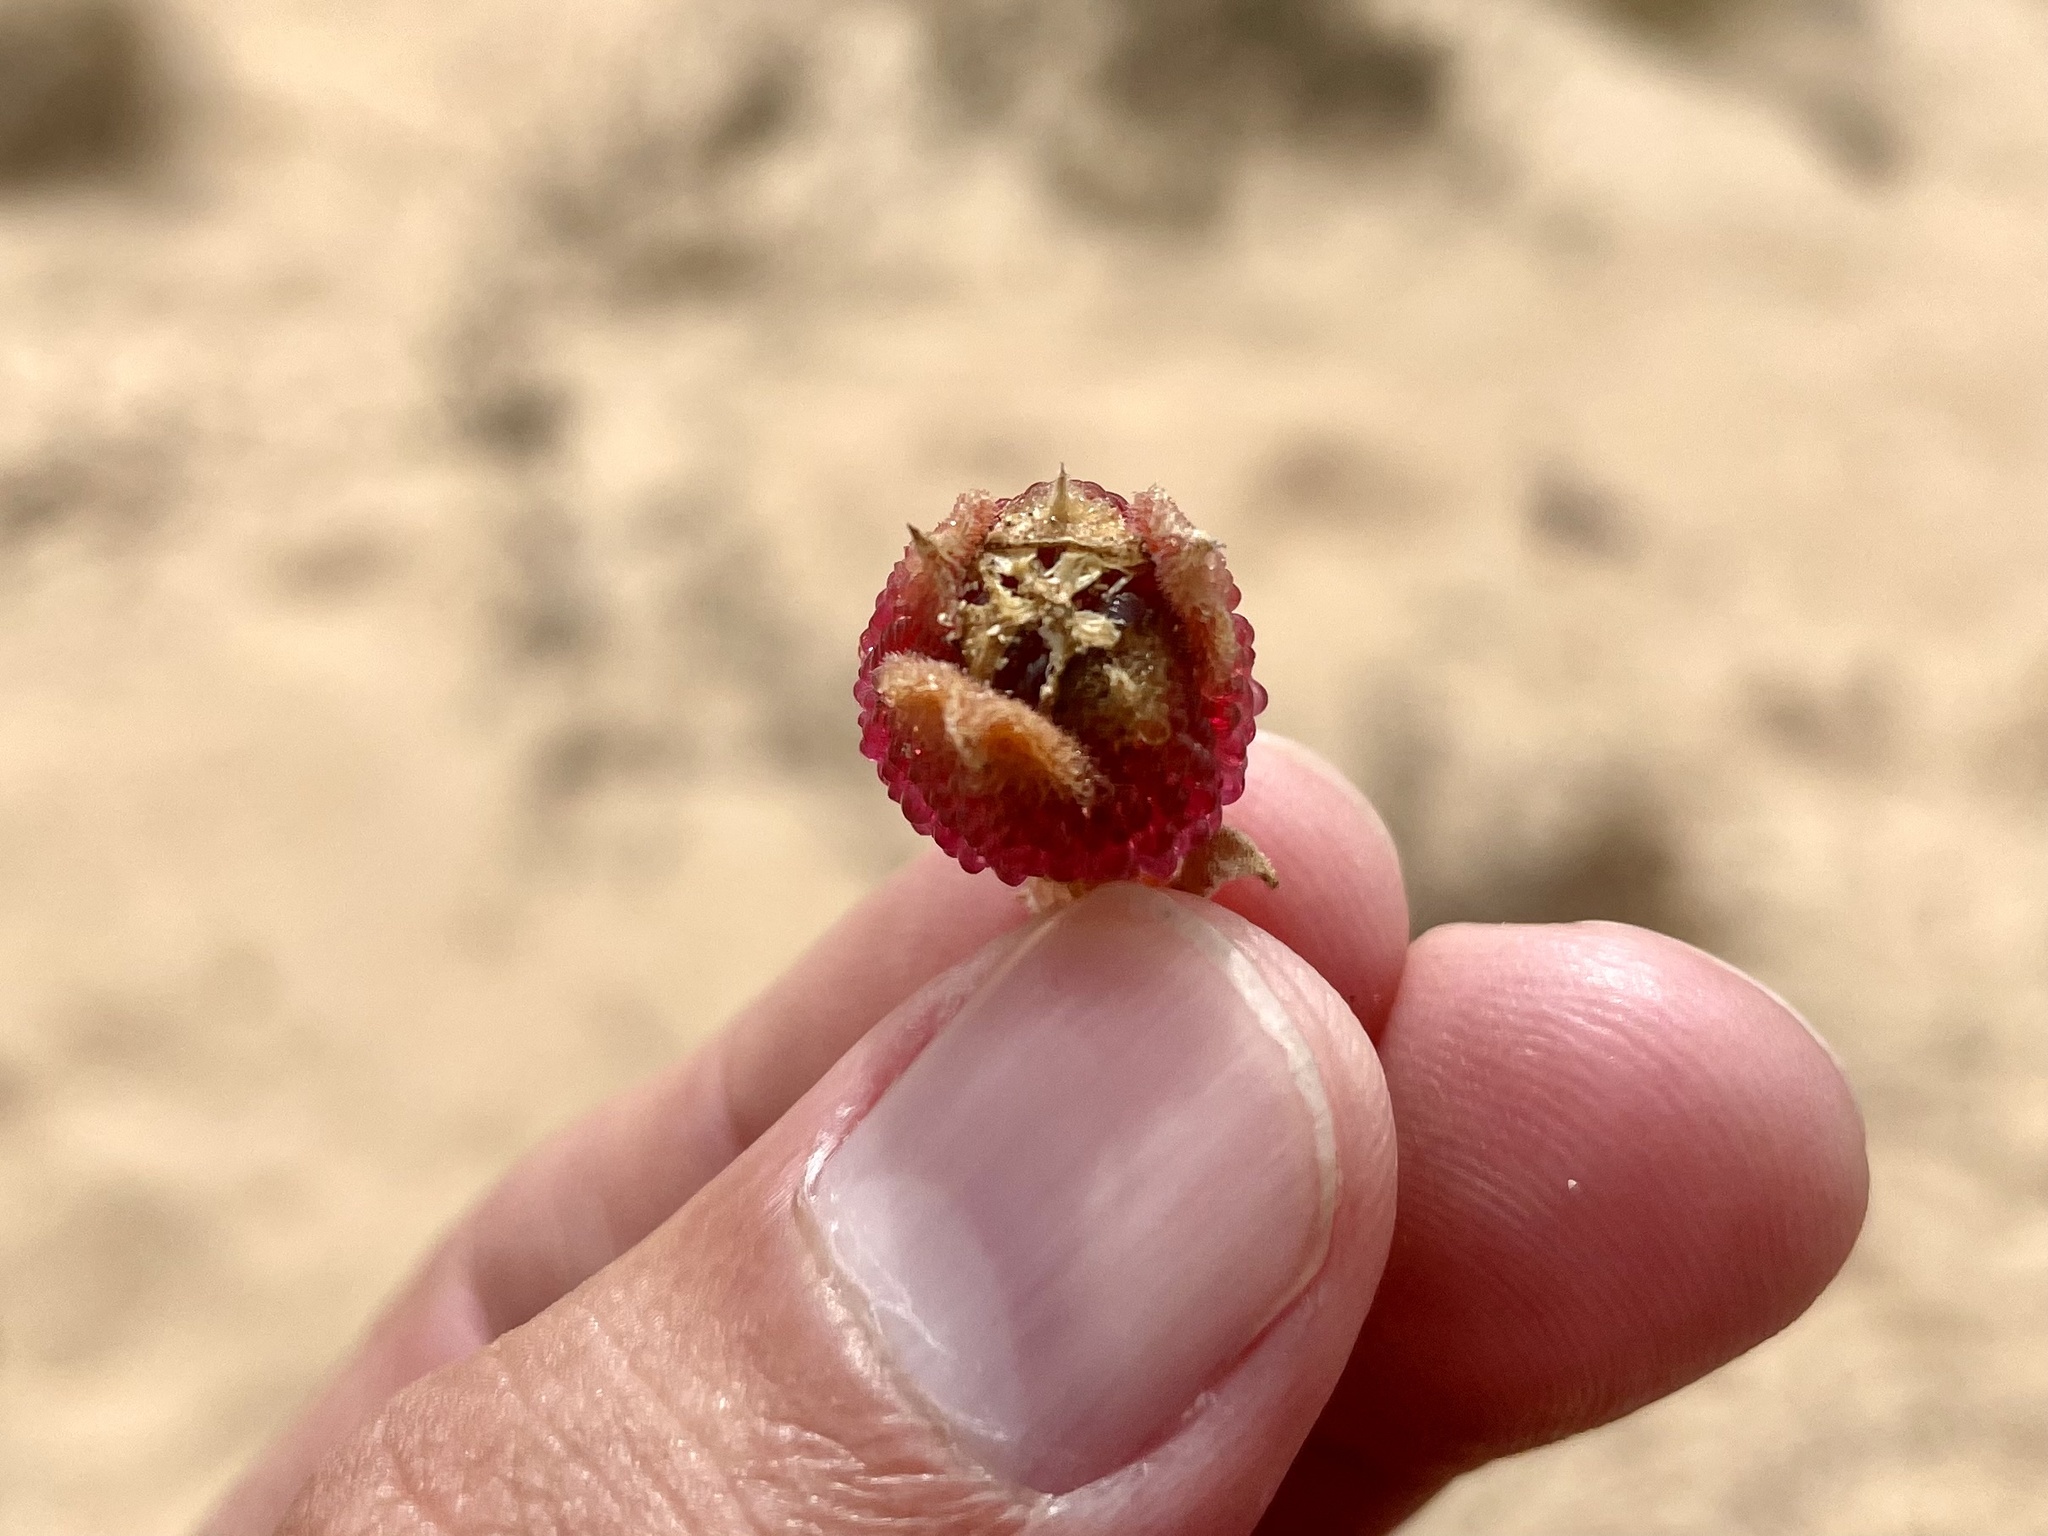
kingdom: Plantae
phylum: Tracheophyta
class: Magnoliopsida
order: Caryophyllales
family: Aizoaceae
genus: Mesembryanthemum
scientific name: Mesembryanthemum crystallinum
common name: Common iceplant
